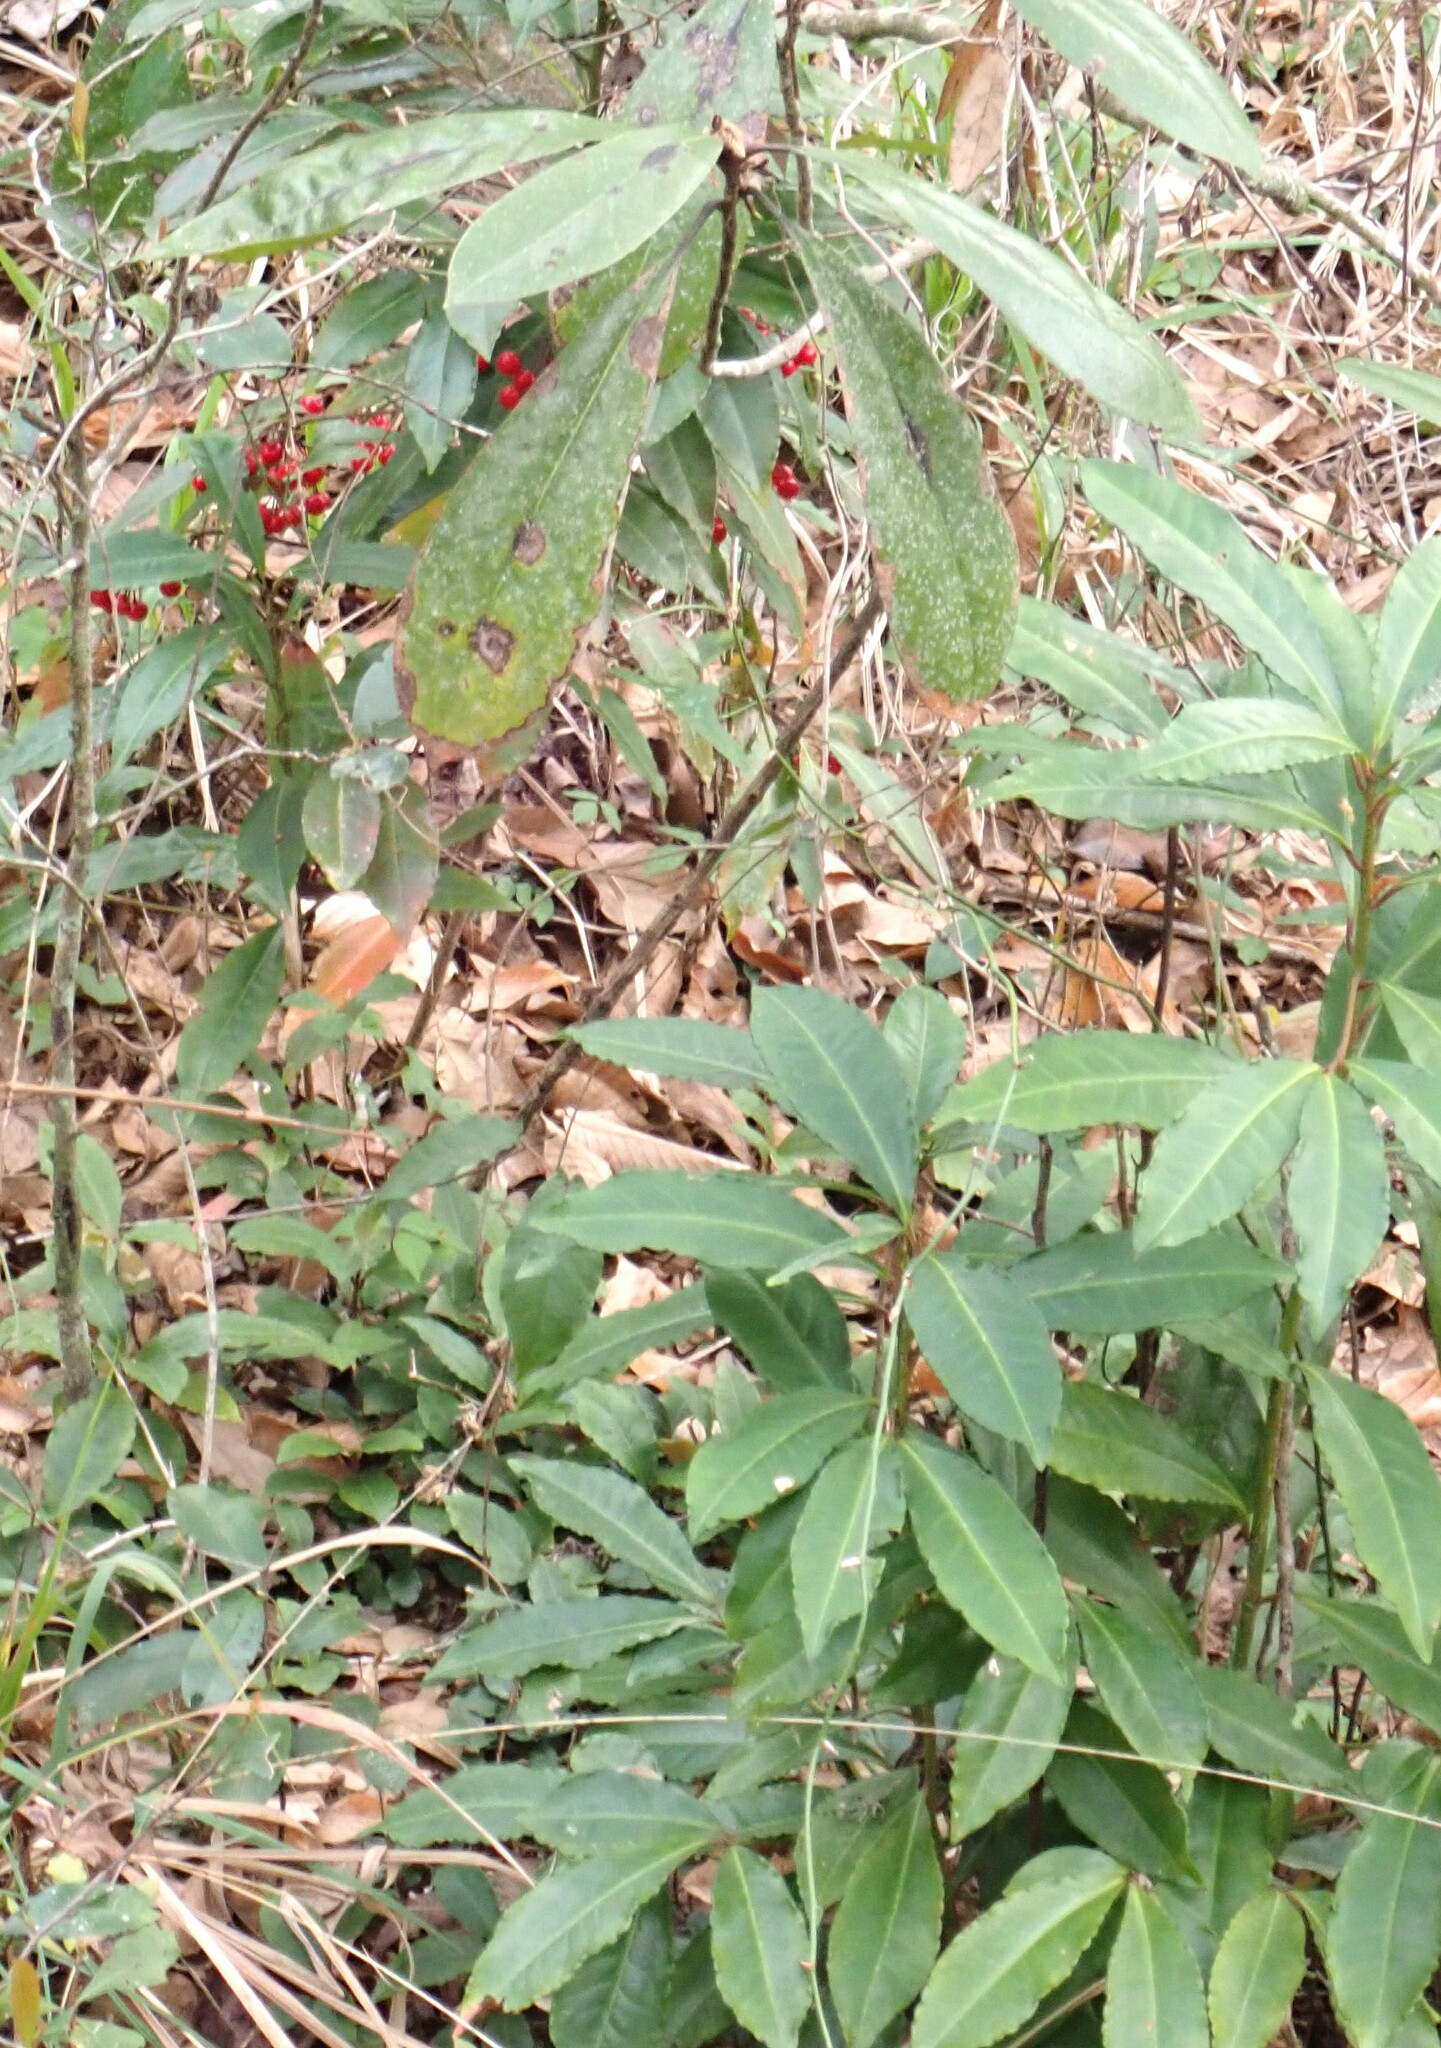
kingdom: Plantae
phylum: Tracheophyta
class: Magnoliopsida
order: Ericales
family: Primulaceae
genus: Ardisia
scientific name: Ardisia crenata
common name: Hen's eyes
